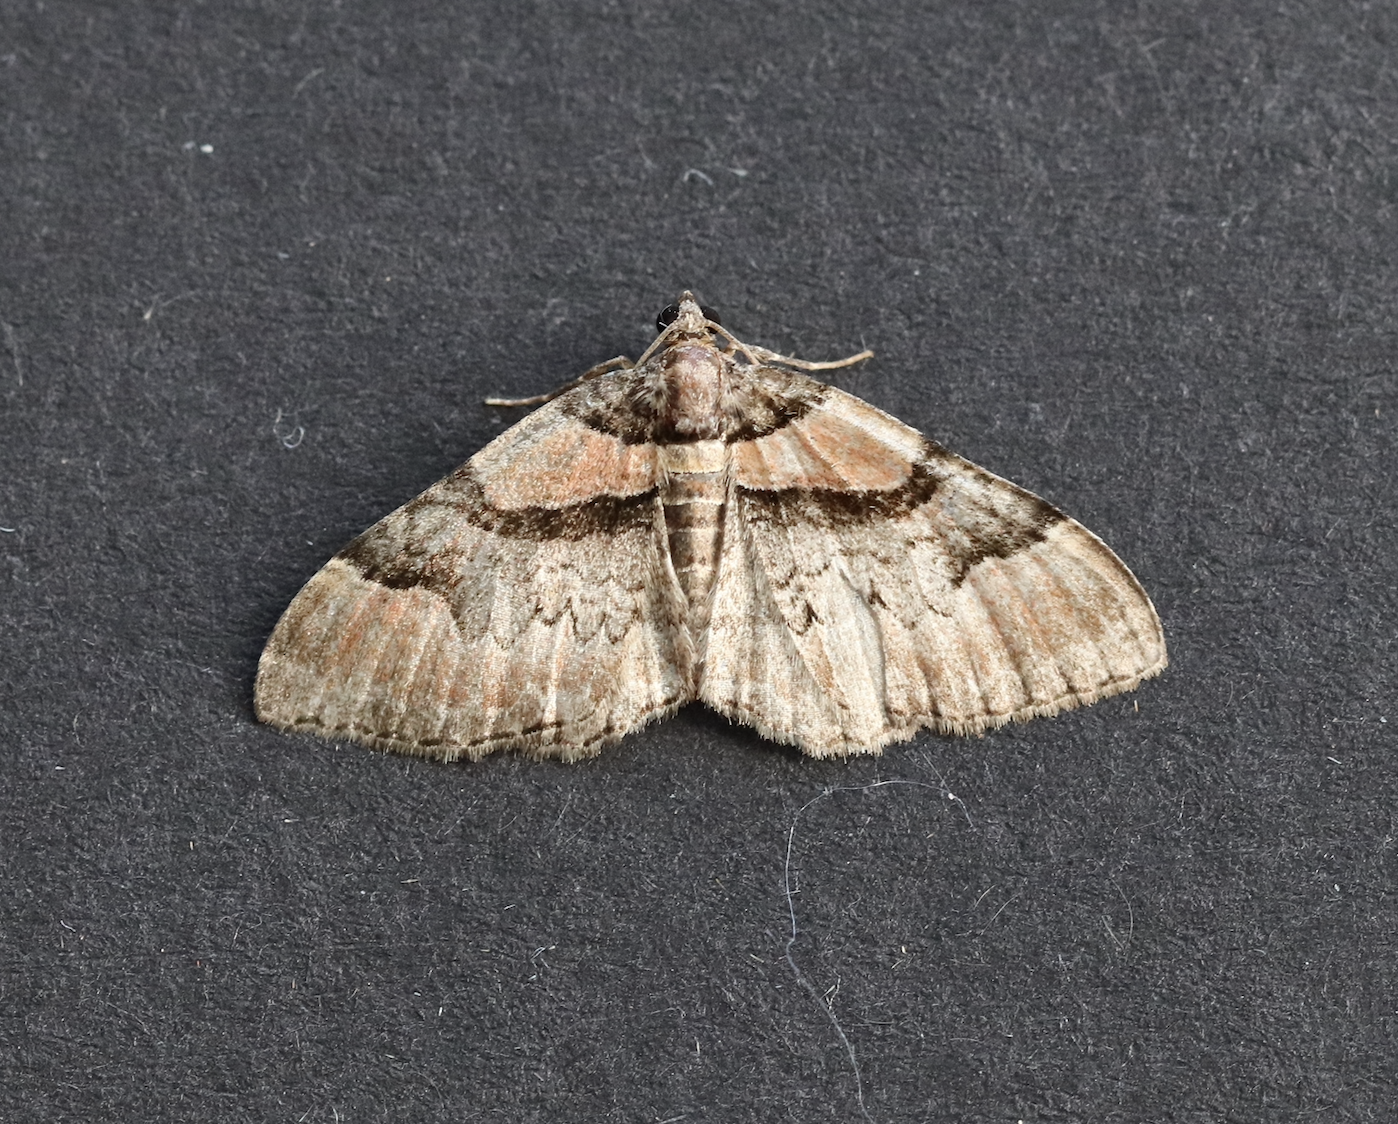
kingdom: Animalia
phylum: Arthropoda
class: Insecta
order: Lepidoptera
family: Geometridae
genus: Catarhoe
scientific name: Catarhoe rubidata
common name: Ruddy carpet
